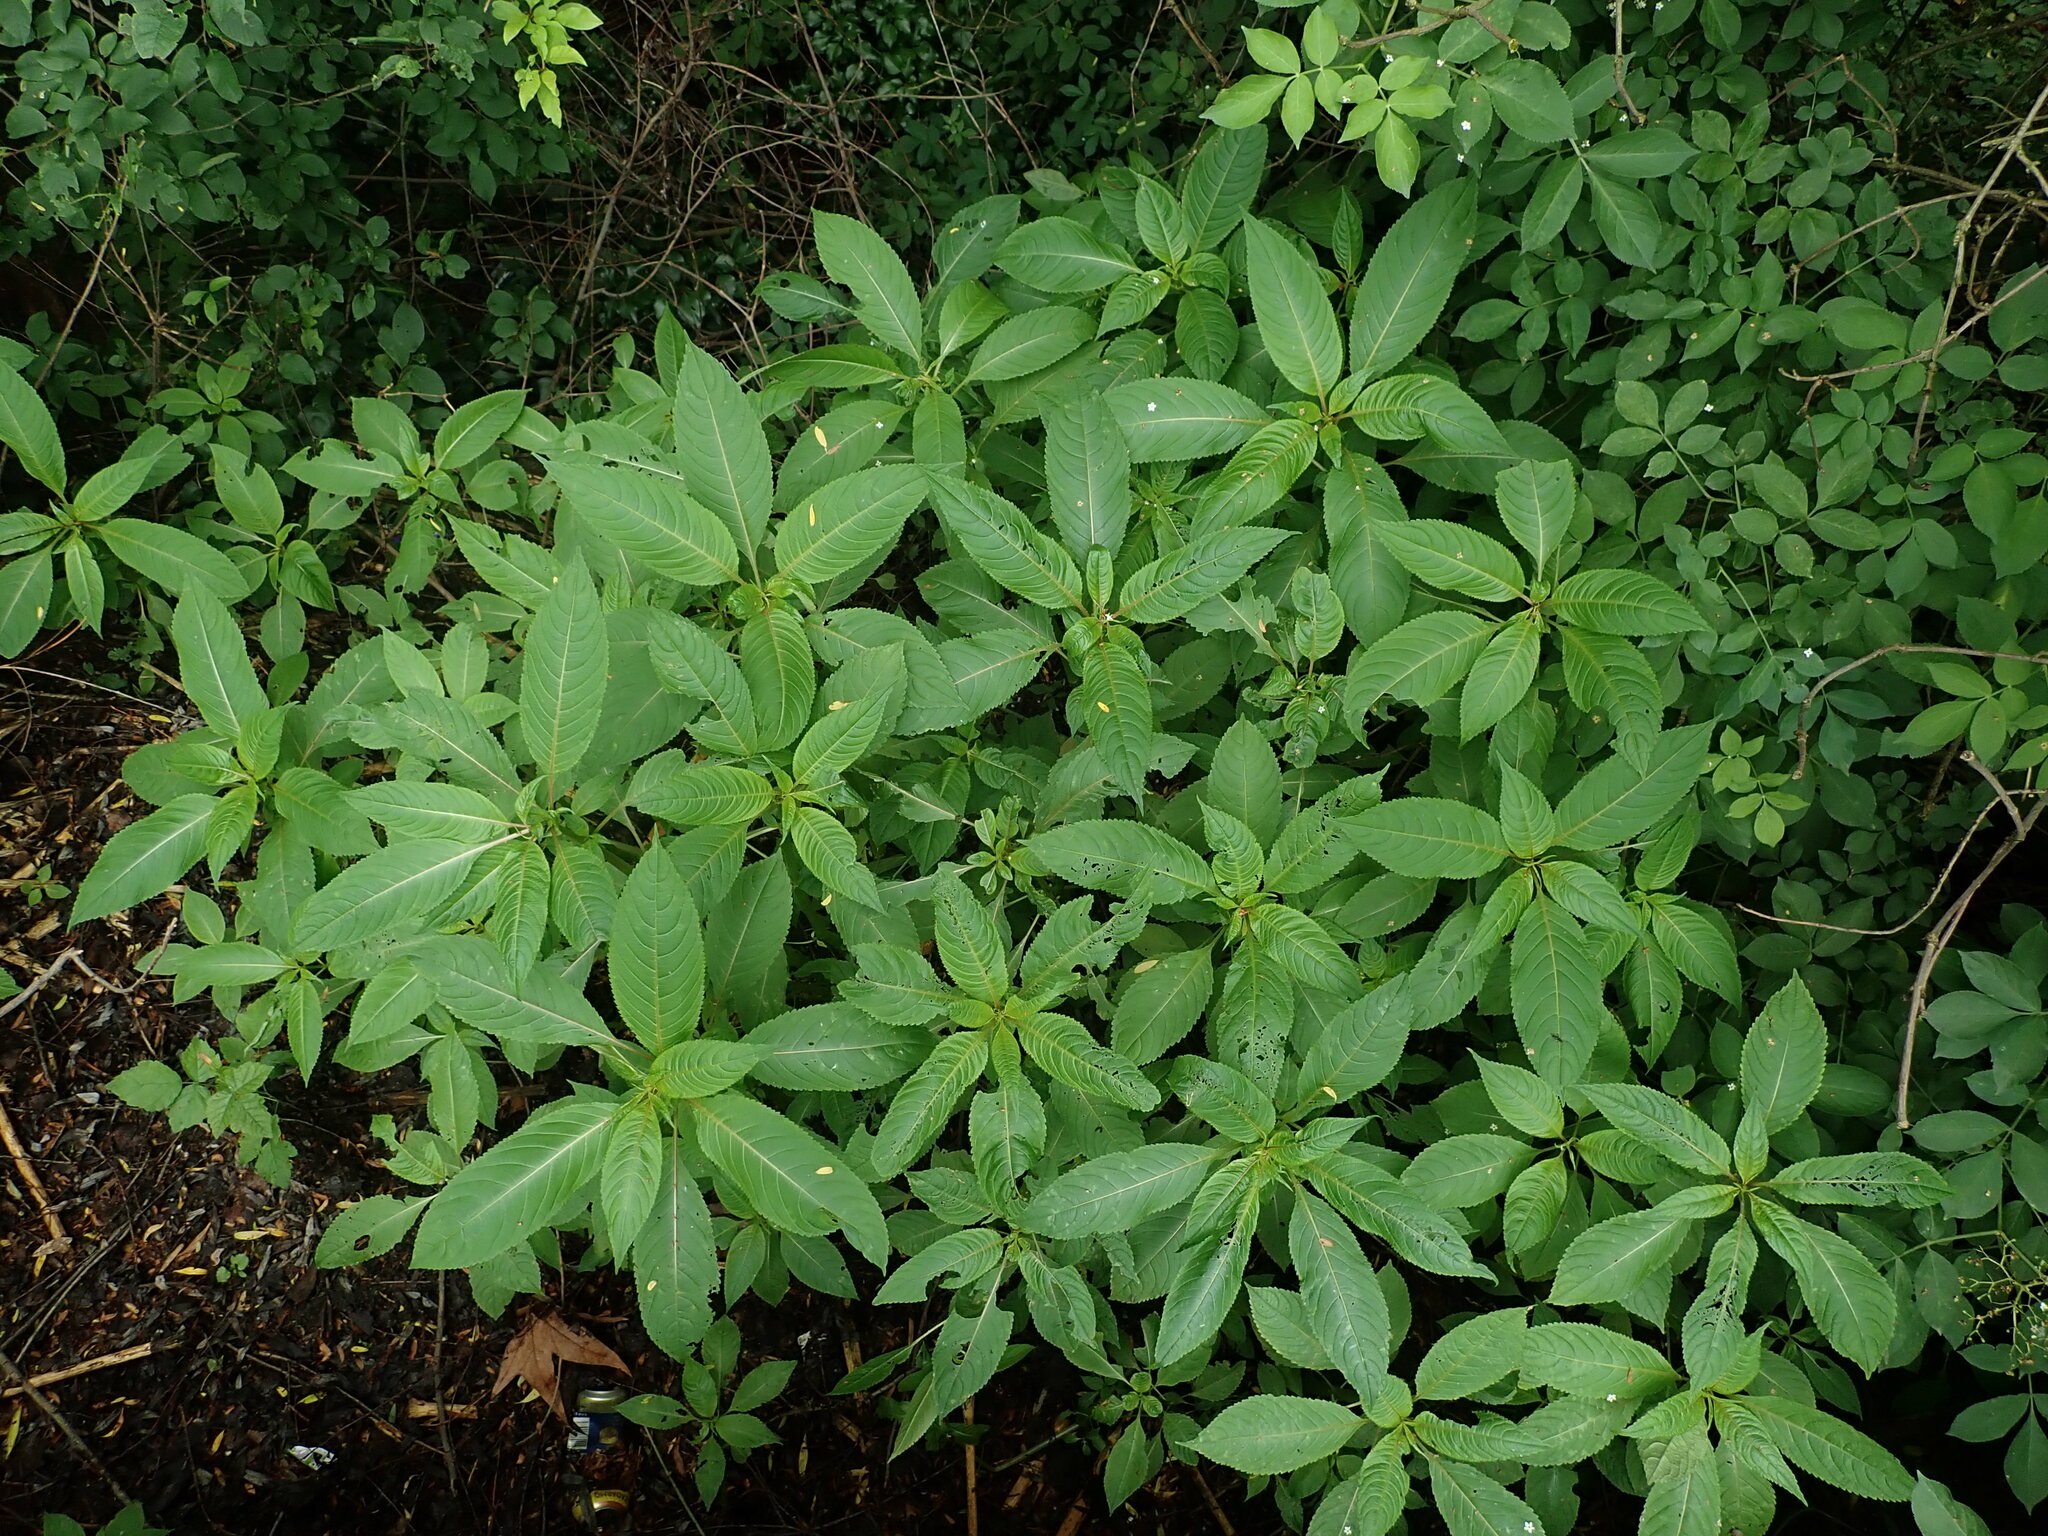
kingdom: Plantae
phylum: Tracheophyta
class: Magnoliopsida
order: Ericales
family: Balsaminaceae
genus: Impatiens
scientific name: Impatiens glandulifera
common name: Himalayan balsam
